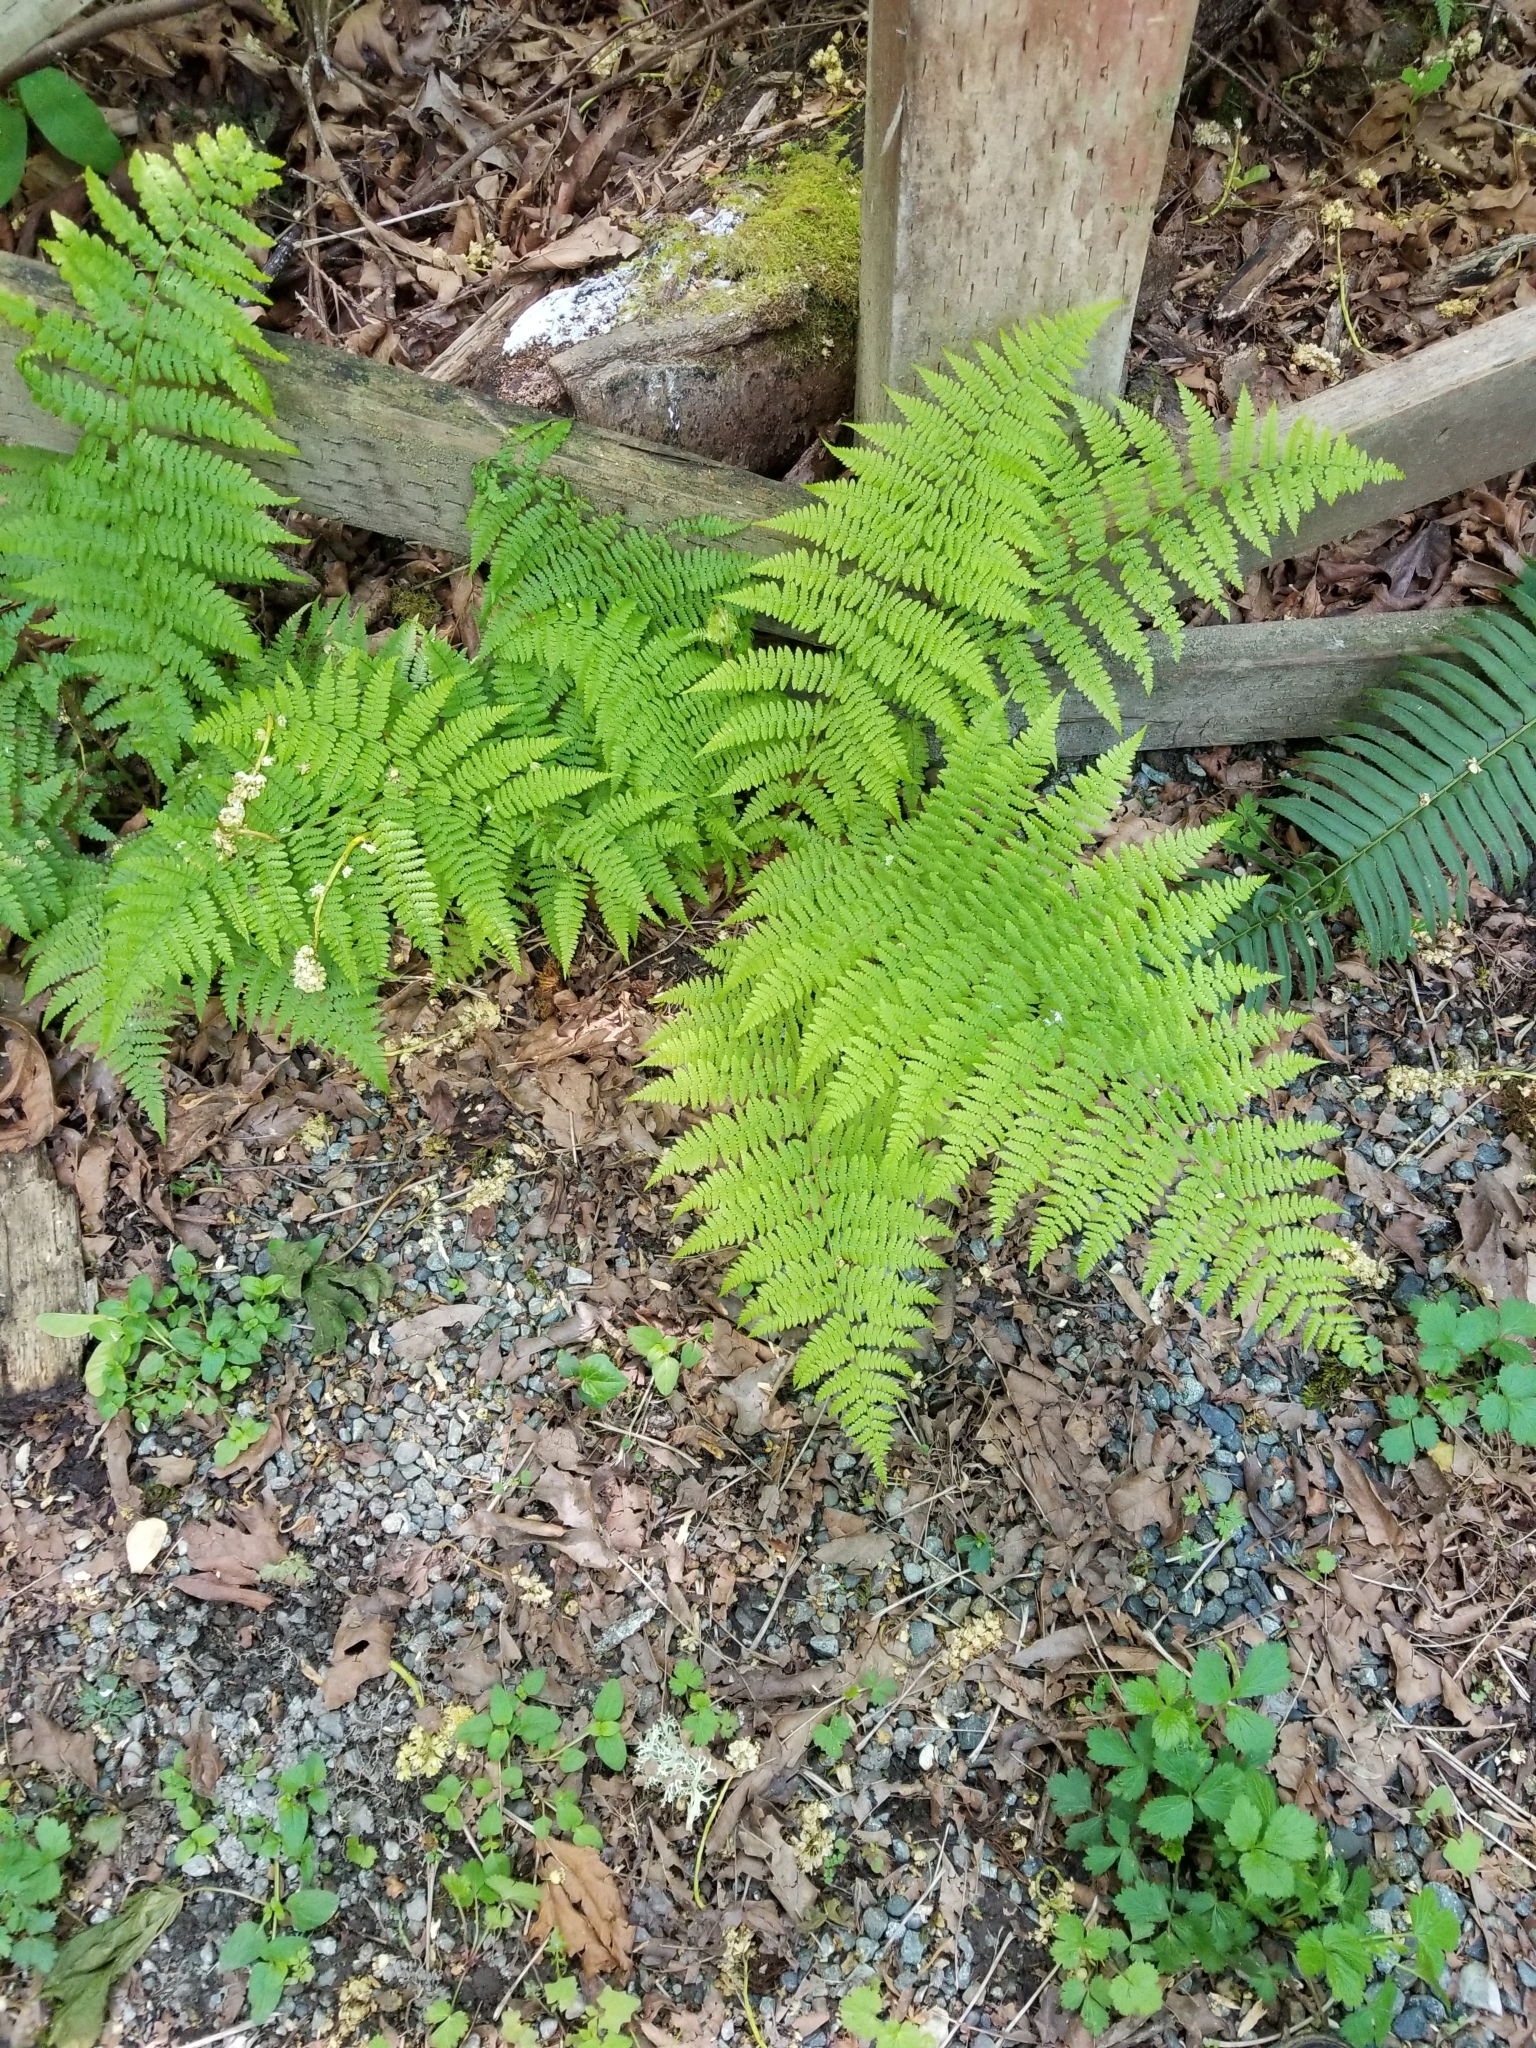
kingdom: Plantae
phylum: Tracheophyta
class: Polypodiopsida
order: Polypodiales
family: Athyriaceae
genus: Athyrium
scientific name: Athyrium filix-femina
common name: Lady fern
